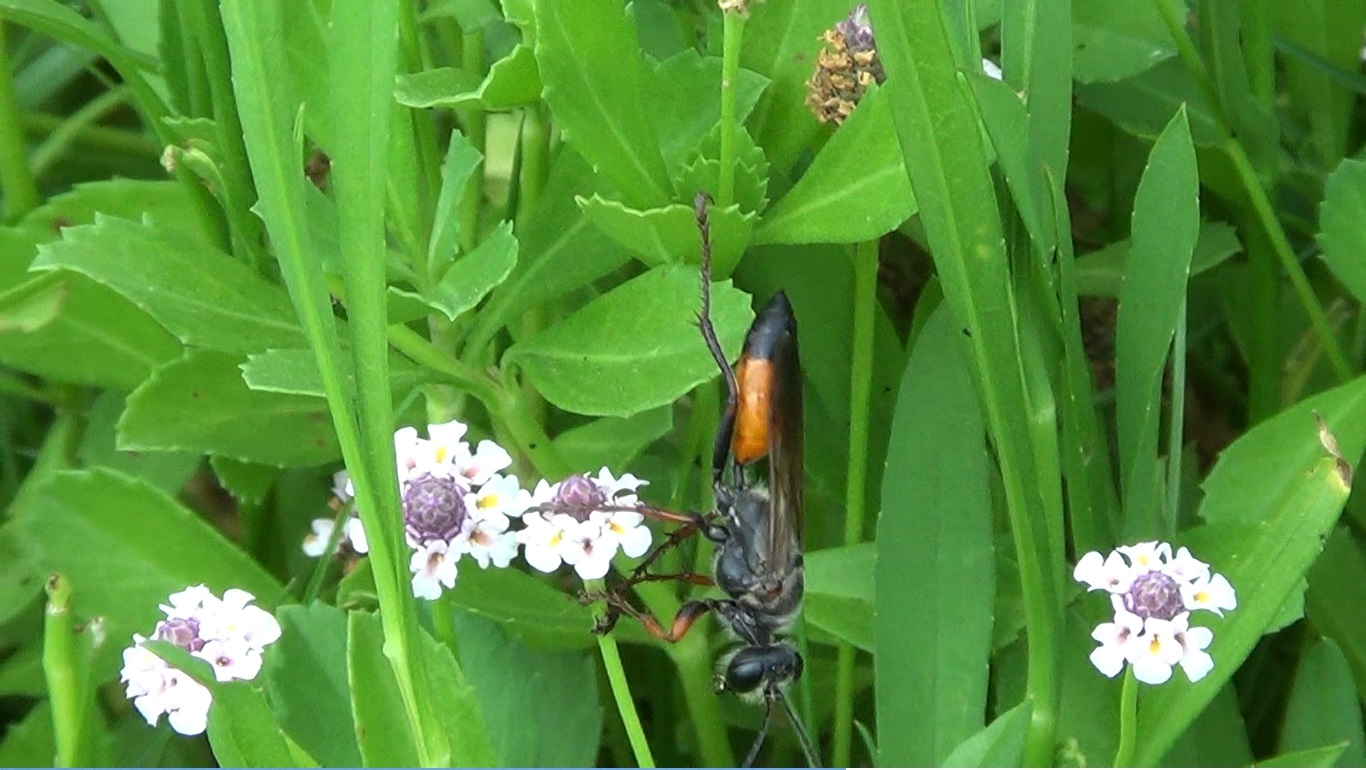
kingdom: Animalia
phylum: Arthropoda
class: Insecta
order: Hymenoptera
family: Sphecidae
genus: Sphex
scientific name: Sphex funerarius
